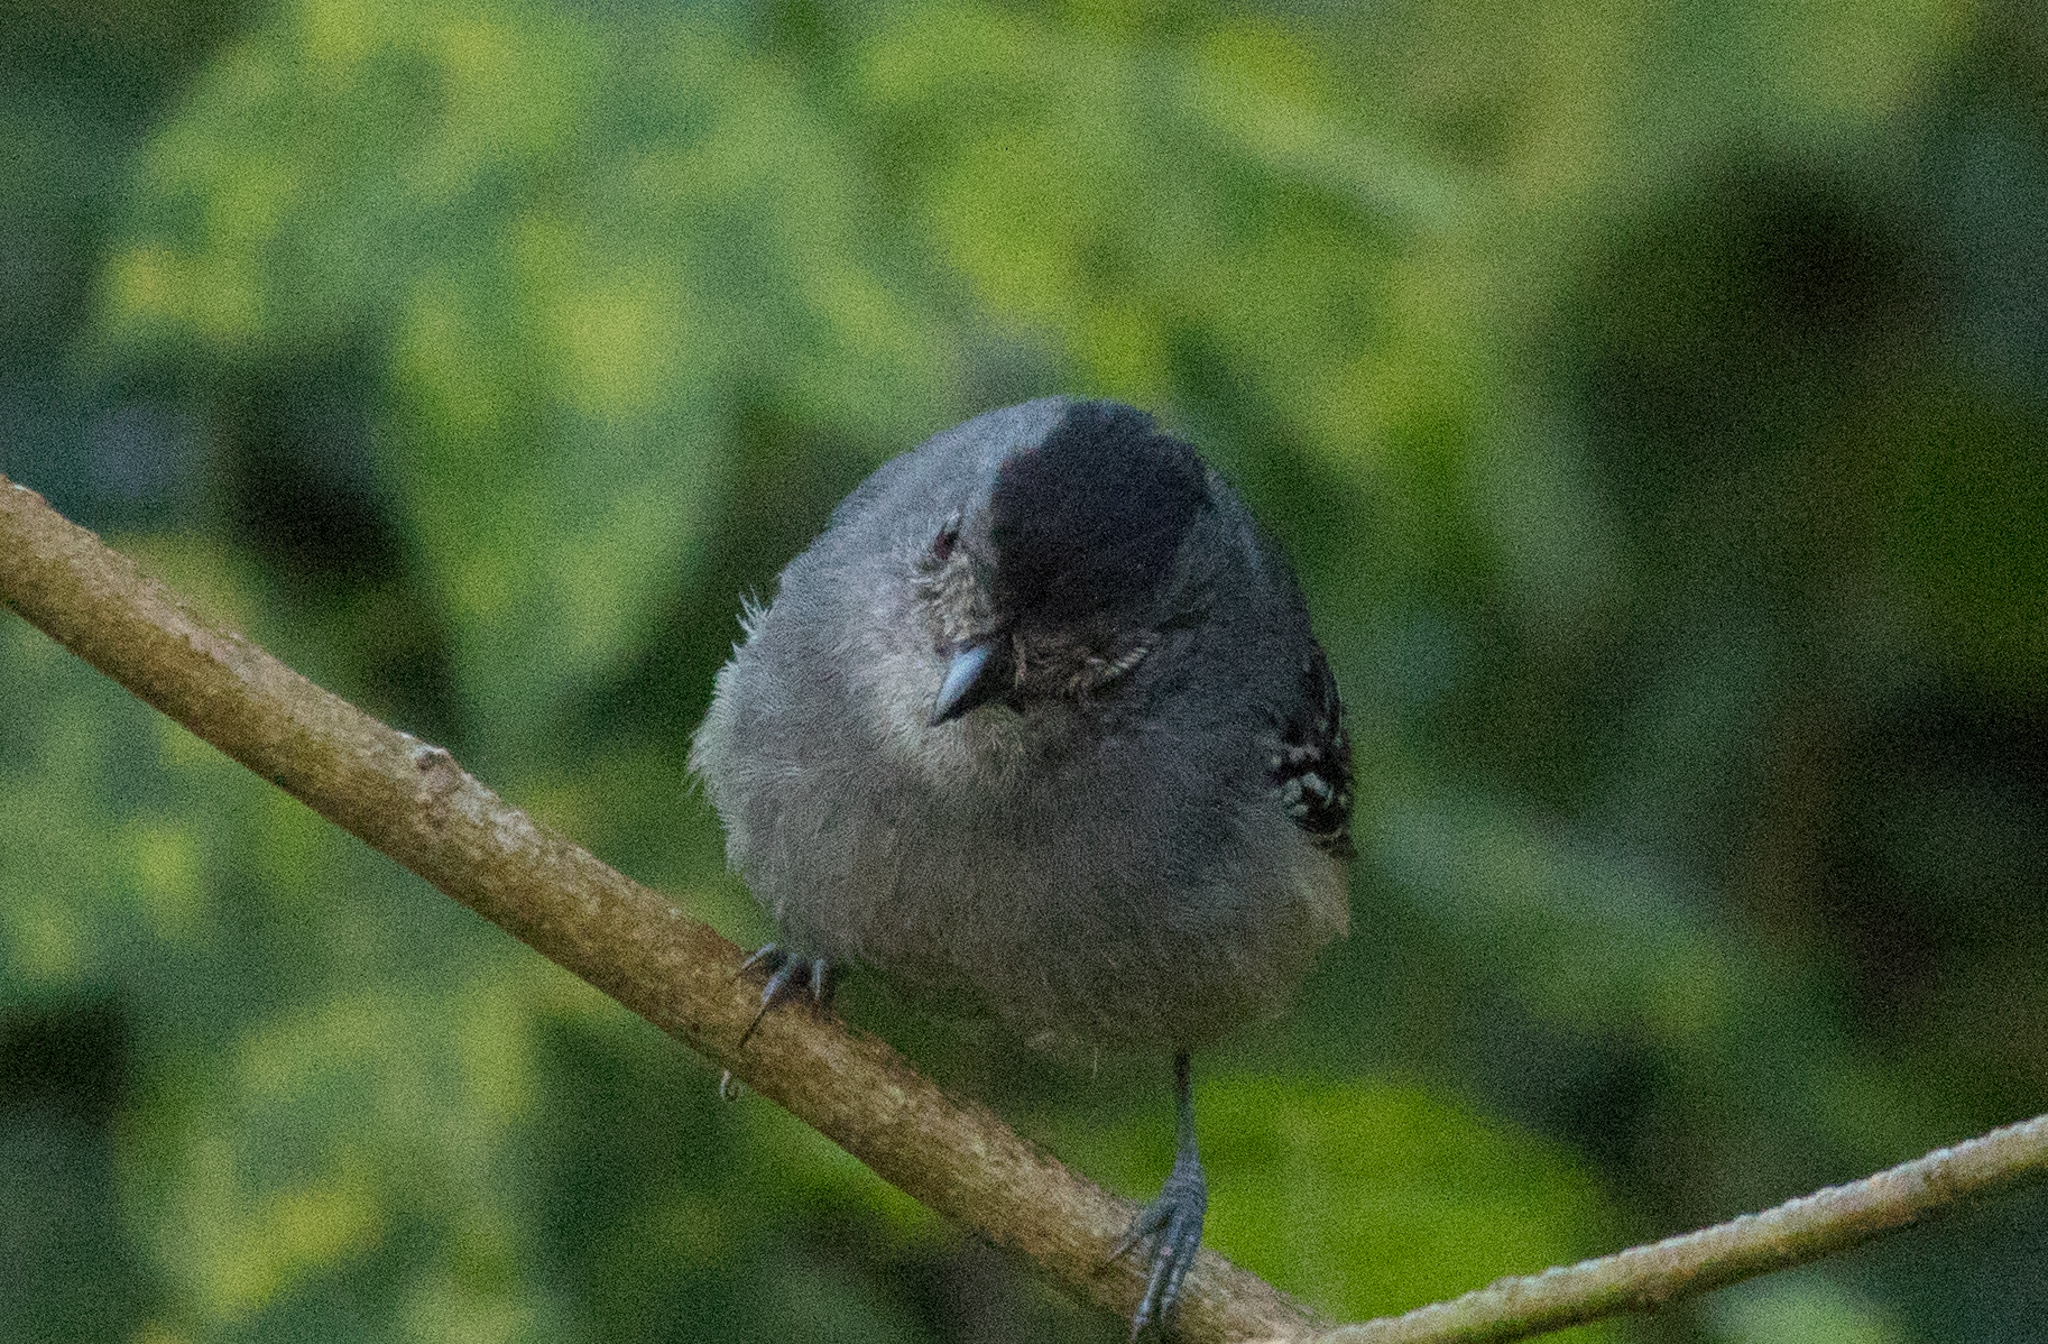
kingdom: Animalia
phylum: Chordata
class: Aves
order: Passeriformes
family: Thamnophilidae
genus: Thamnophilus
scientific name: Thamnophilus caerulescens
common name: Variable antshrike
